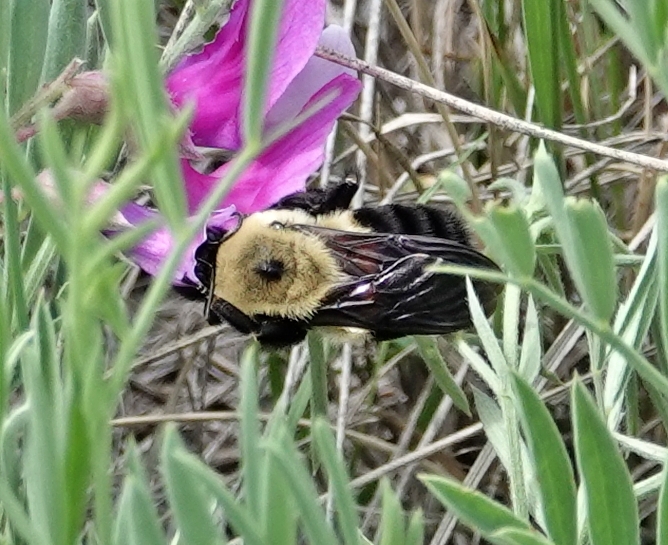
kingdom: Animalia
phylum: Arthropoda
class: Insecta
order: Hymenoptera
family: Apidae
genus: Bombus
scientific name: Bombus griseocollis
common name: Brown-belted bumble bee
